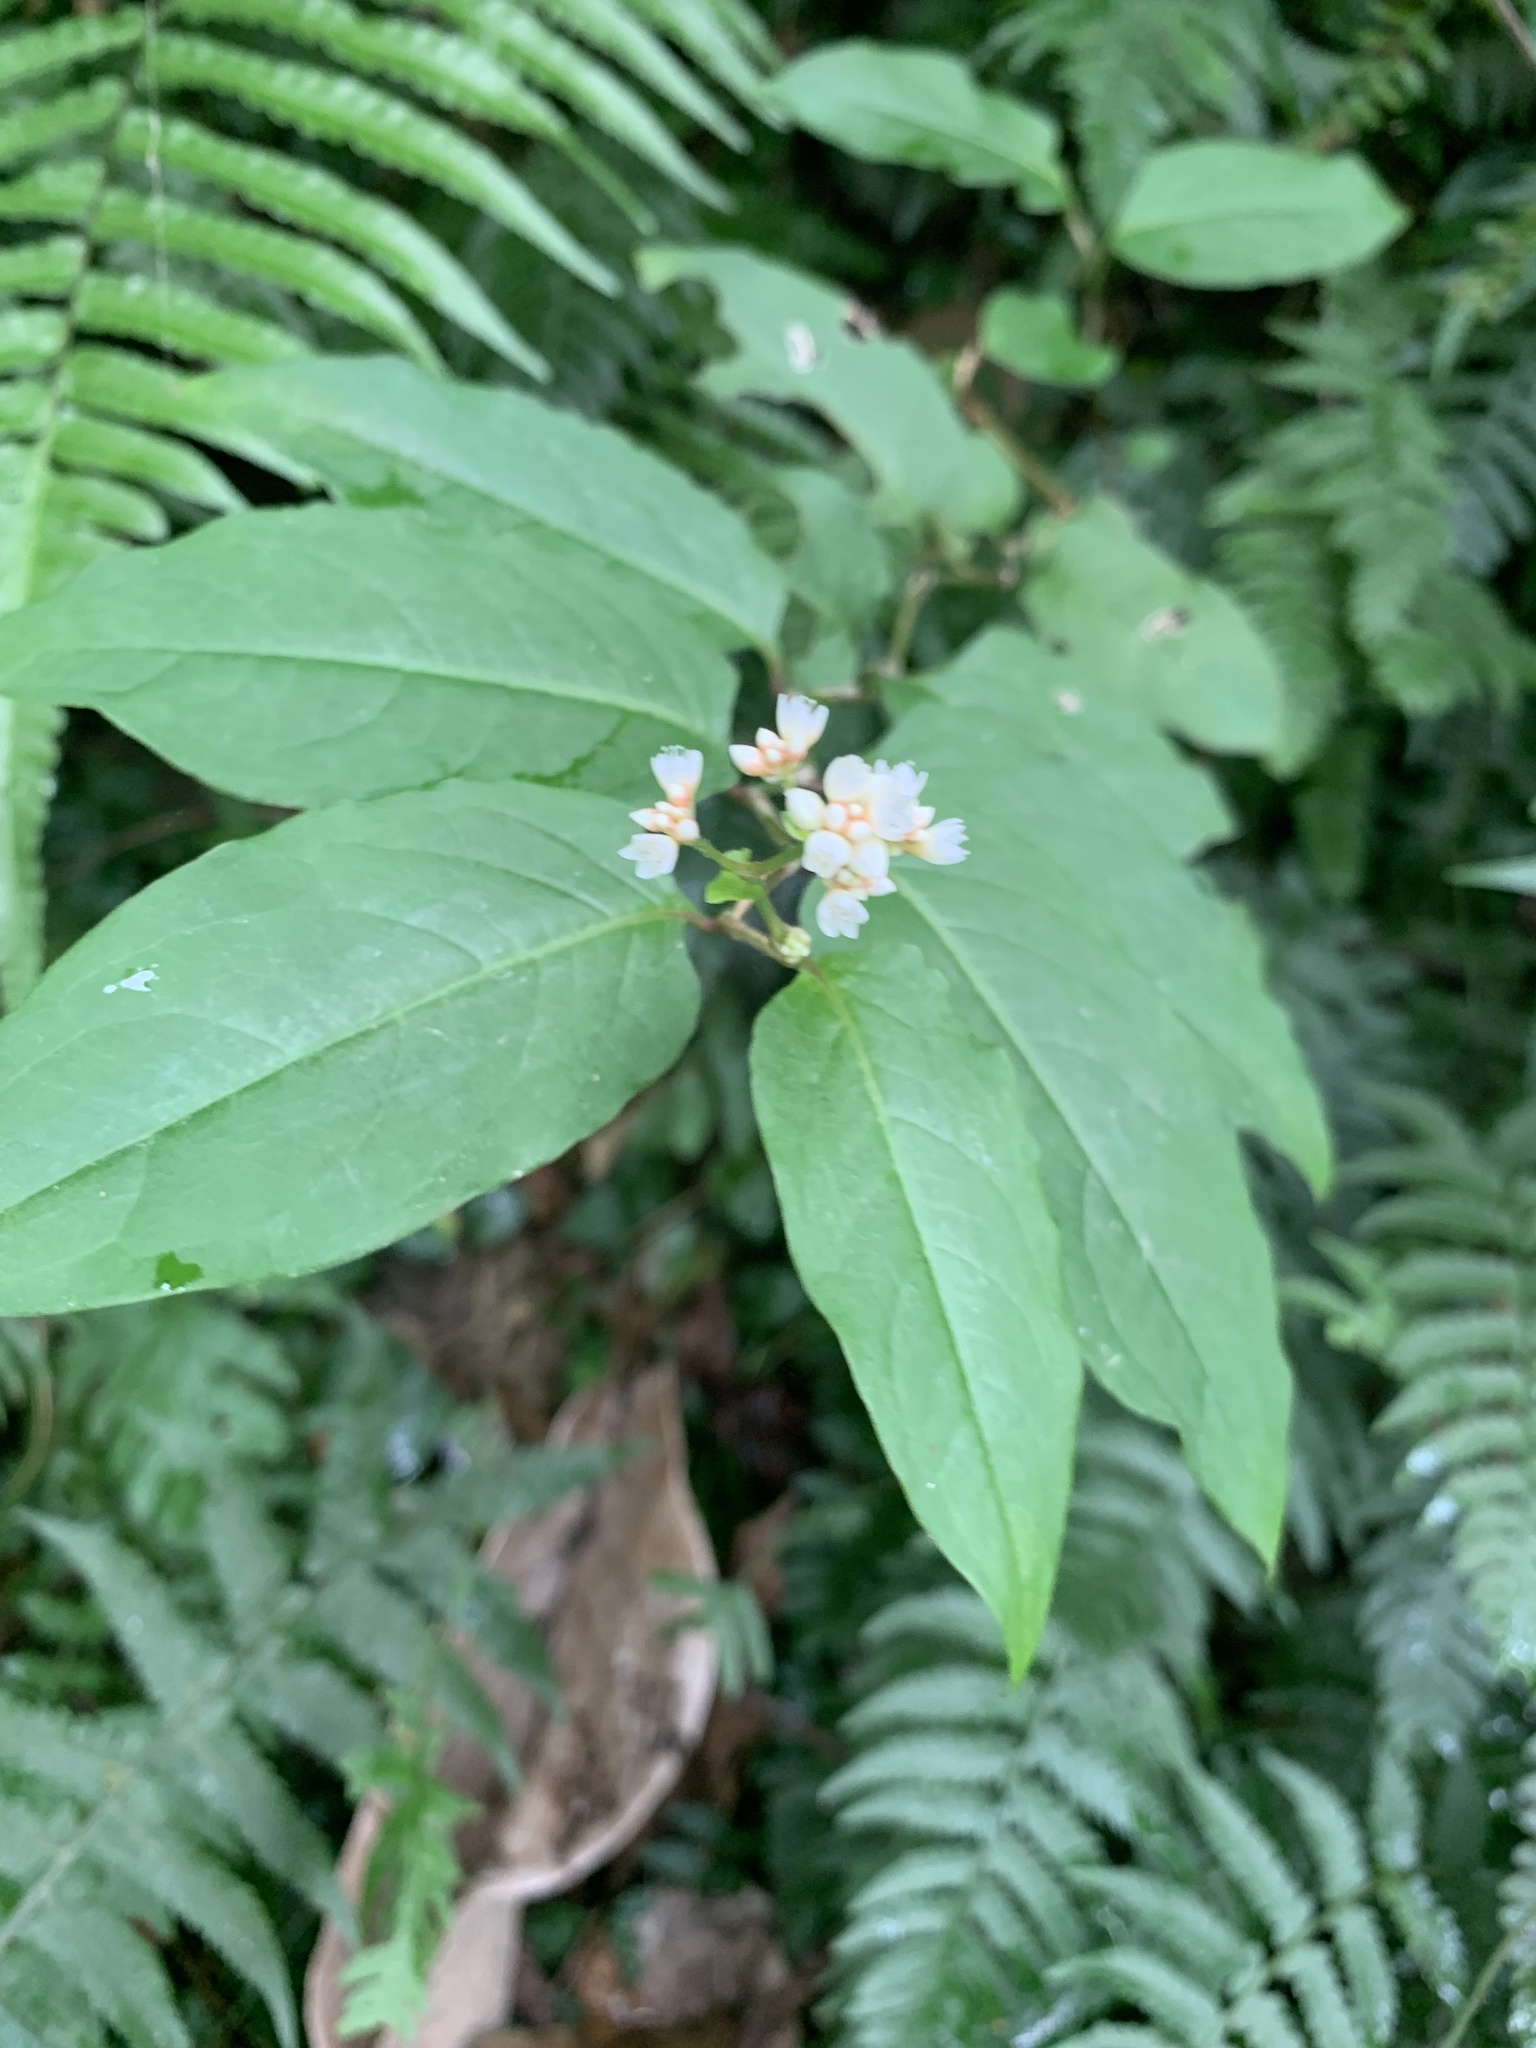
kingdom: Plantae
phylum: Tracheophyta
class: Magnoliopsida
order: Caryophyllales
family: Polygonaceae
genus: Persicaria
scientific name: Persicaria chinensis
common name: Chinese knotweed
